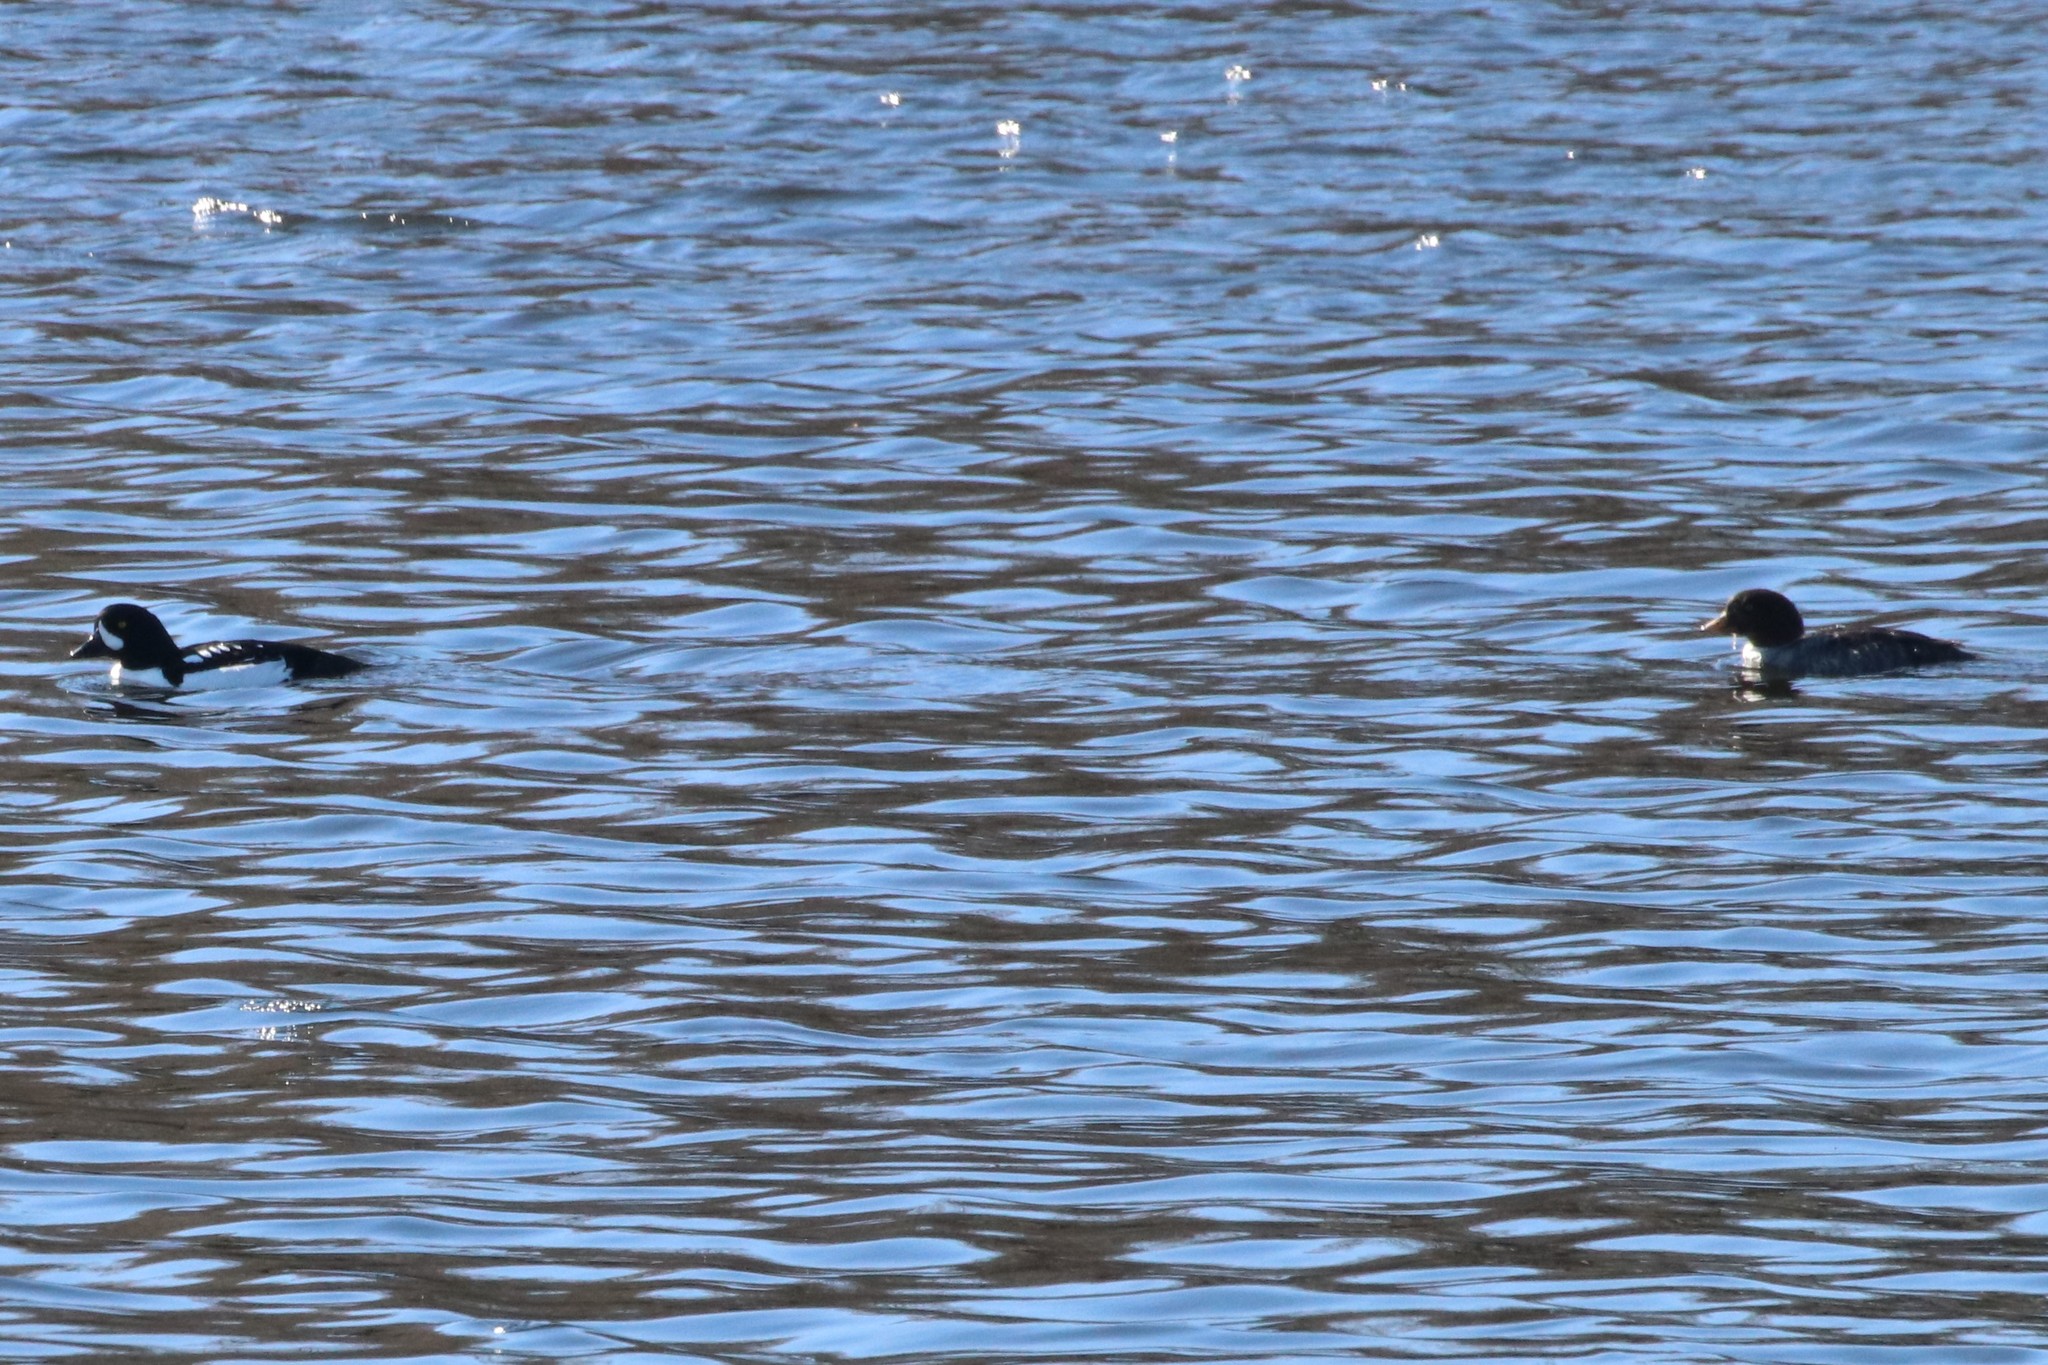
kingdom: Animalia
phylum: Chordata
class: Aves
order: Anseriformes
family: Anatidae
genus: Bucephala
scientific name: Bucephala islandica
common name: Barrow's goldeneye
